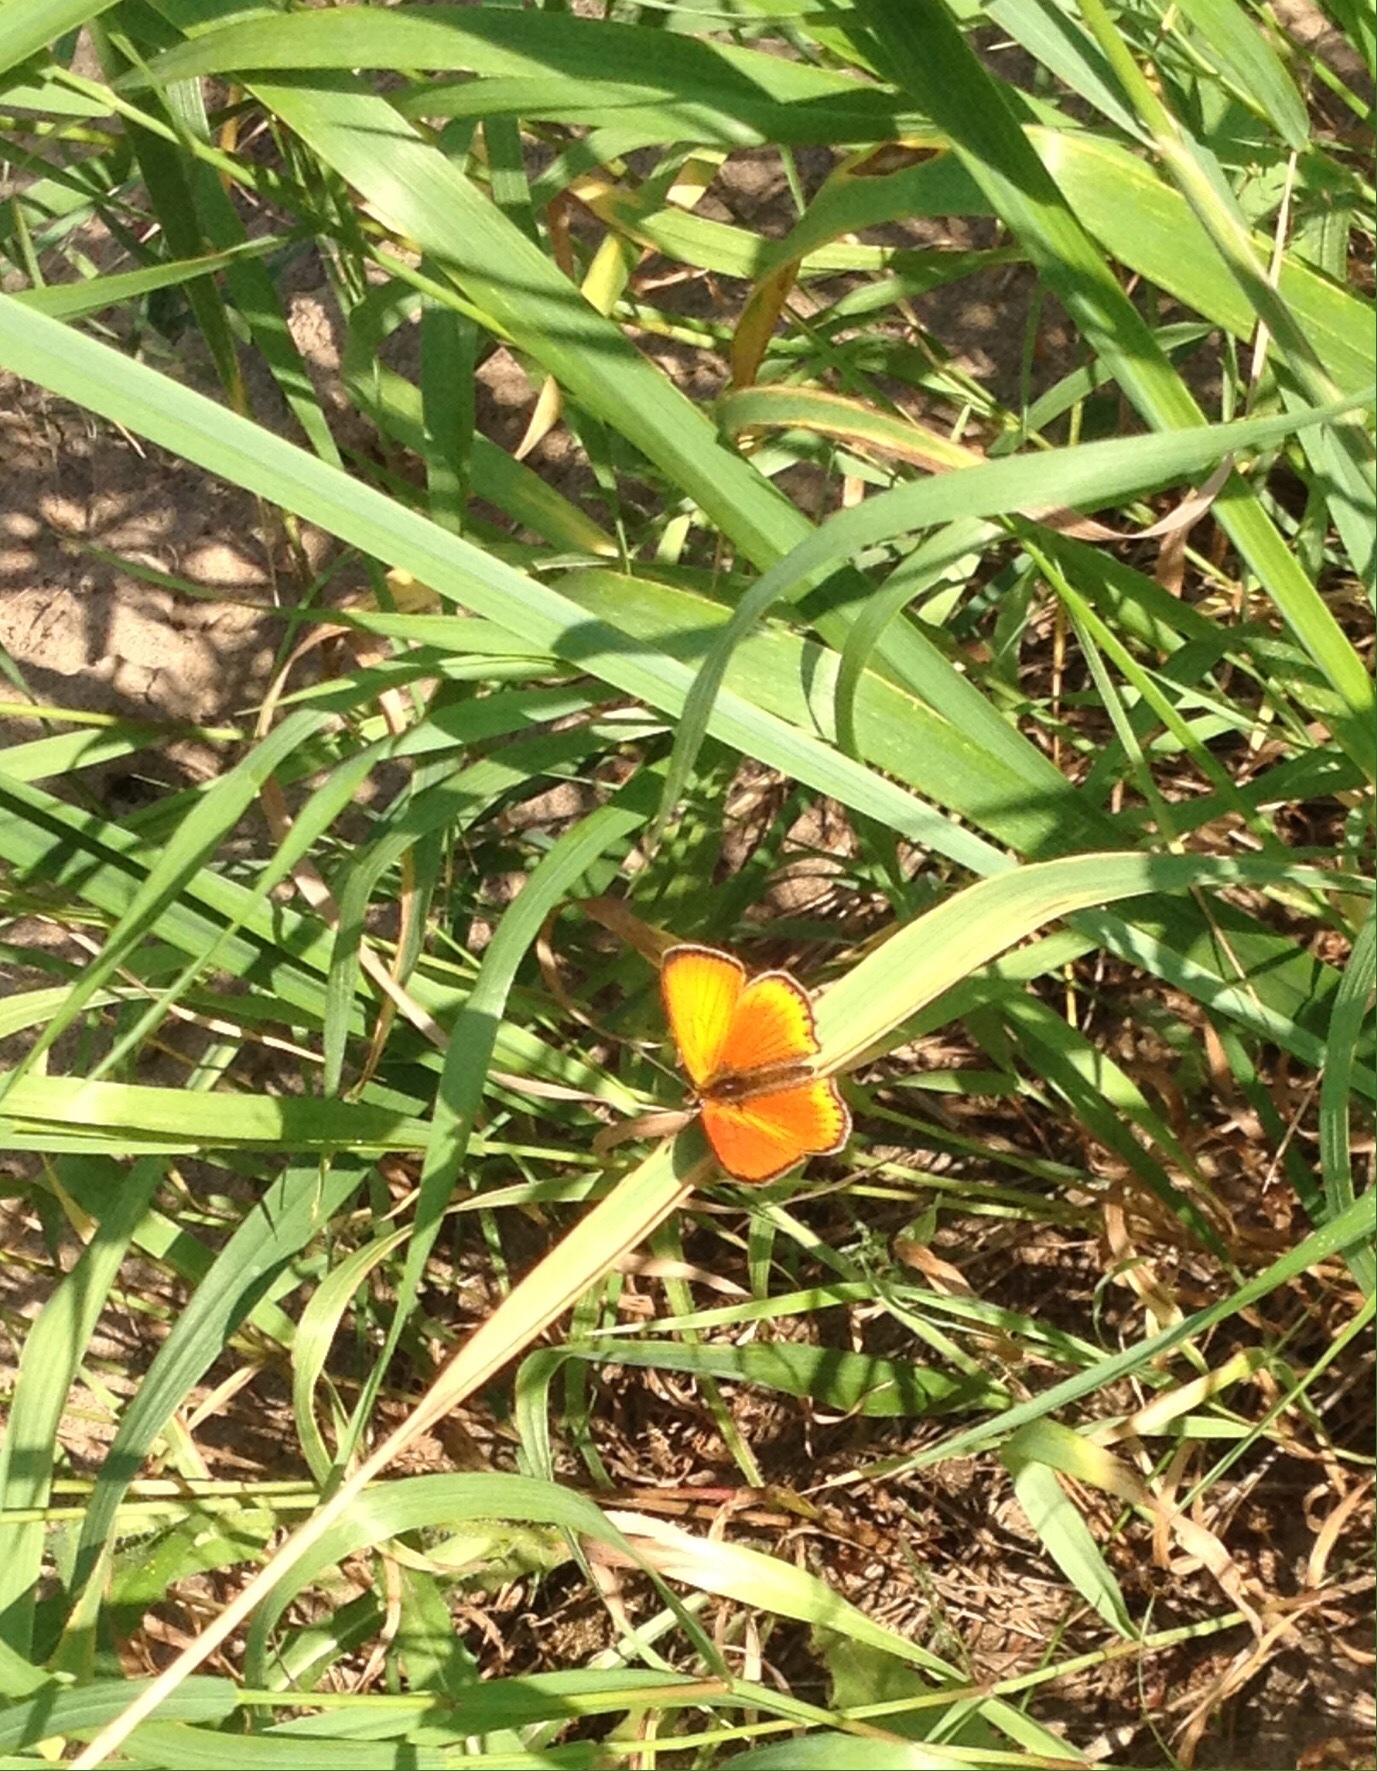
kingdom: Animalia
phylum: Arthropoda
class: Insecta
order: Lepidoptera
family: Lycaenidae
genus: Lycaena
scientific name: Lycaena virgaureae
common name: Scarce copper
